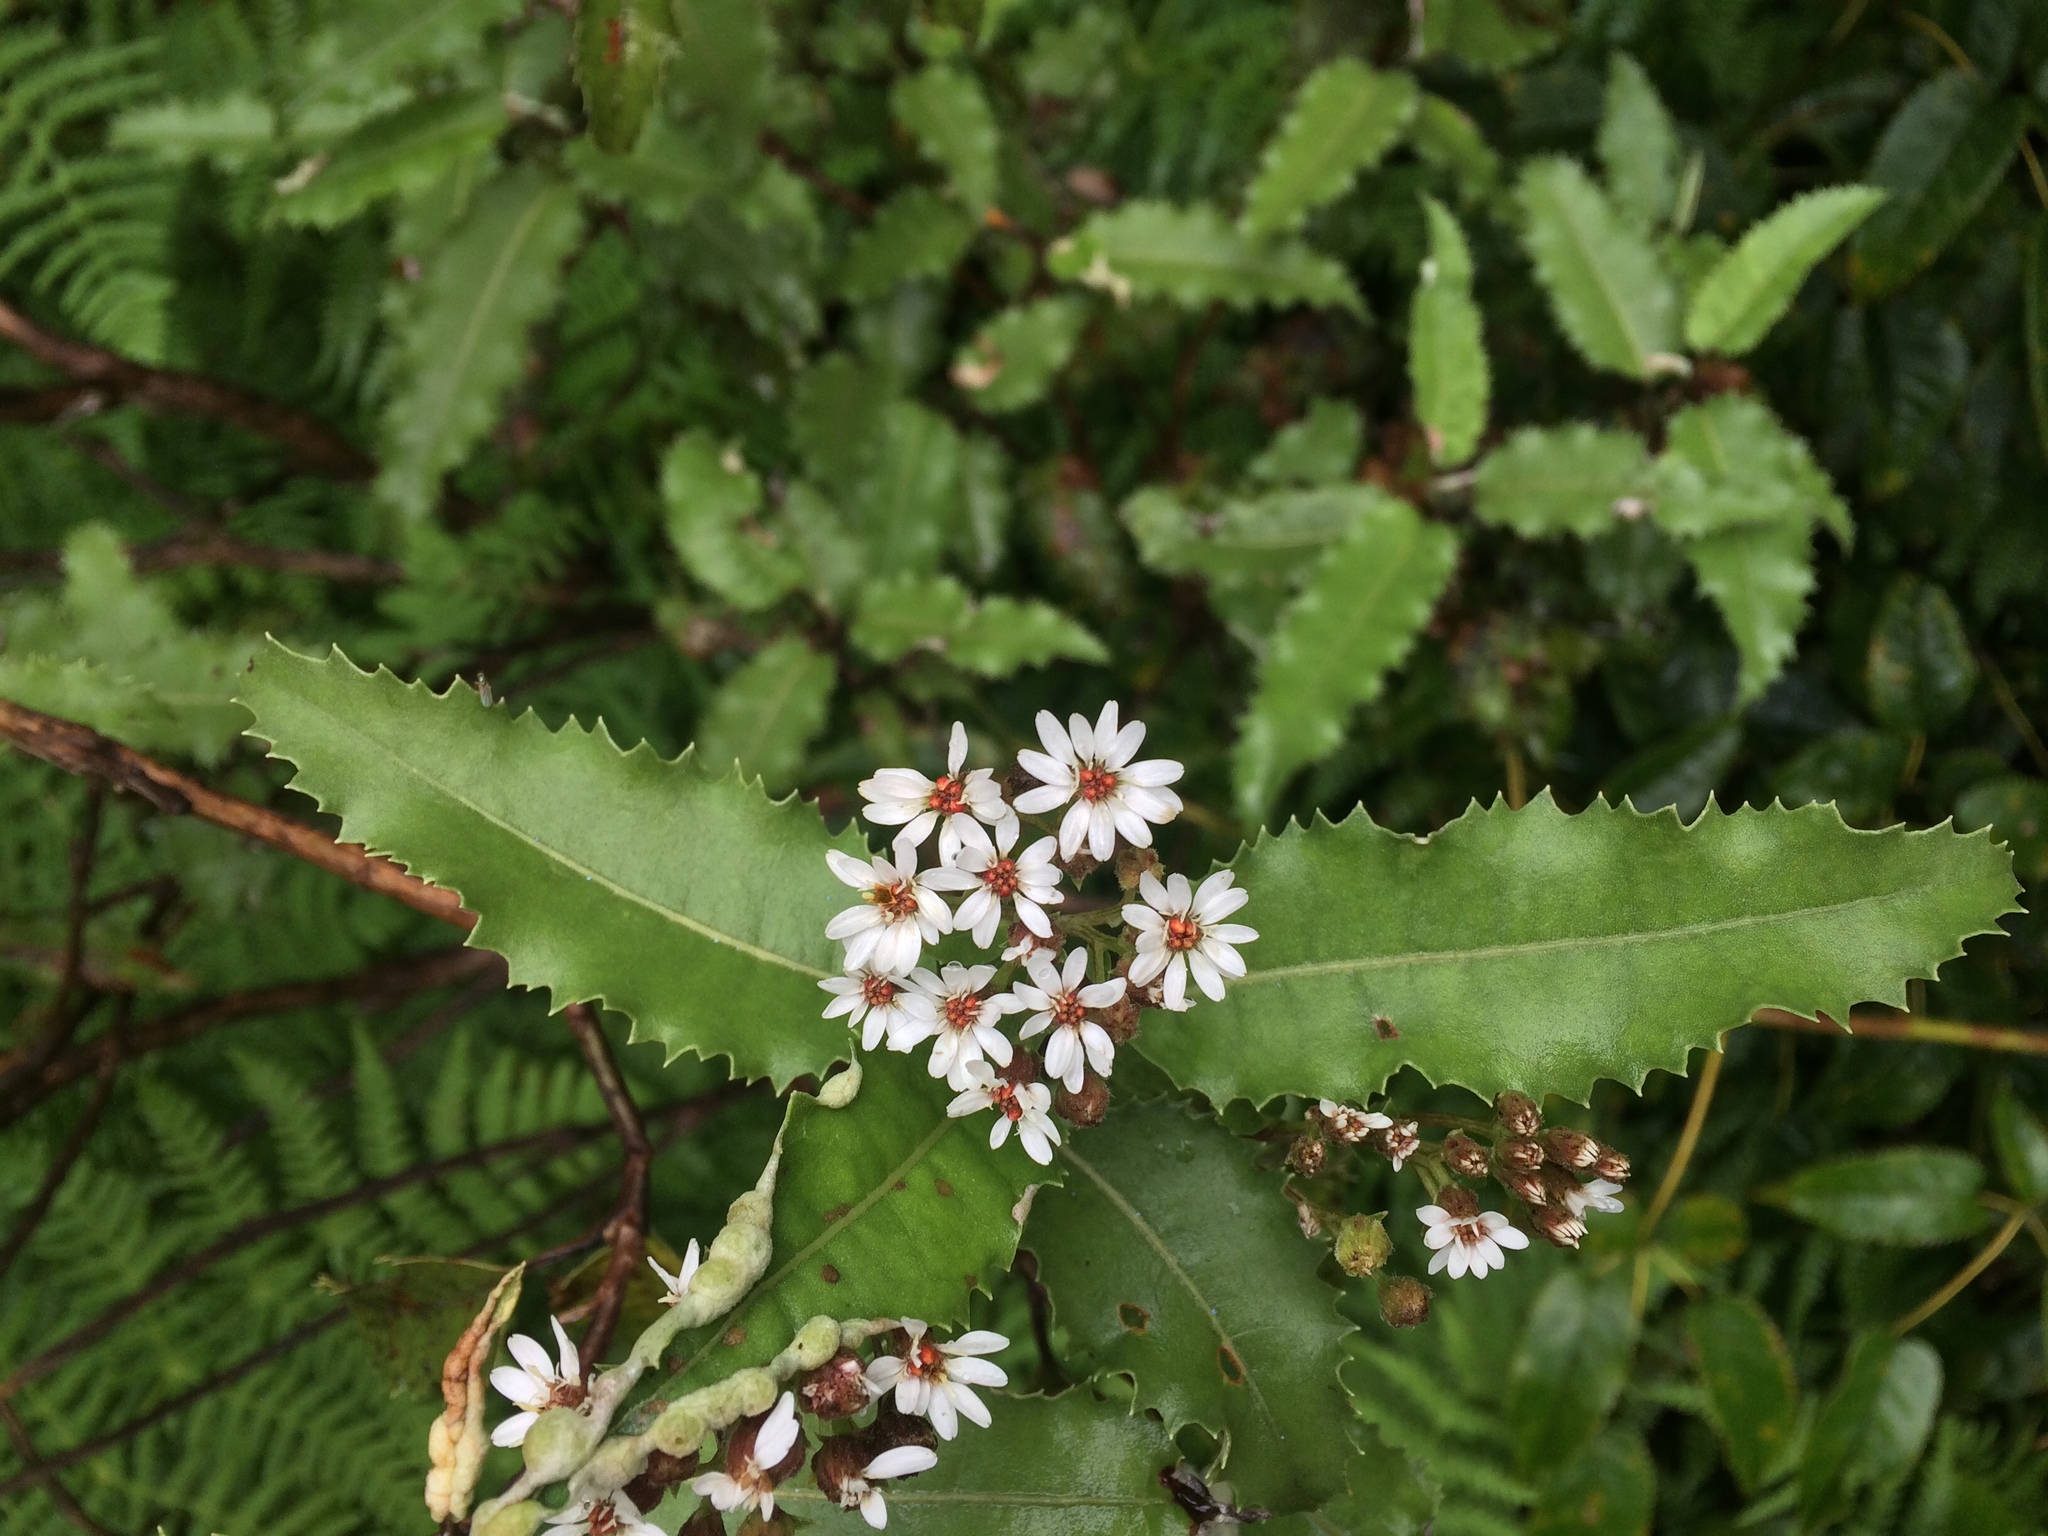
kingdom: Plantae
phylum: Tracheophyta
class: Magnoliopsida
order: Asterales
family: Asteraceae
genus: Olearia
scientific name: Olearia ilicifolia
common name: Maori-holly
